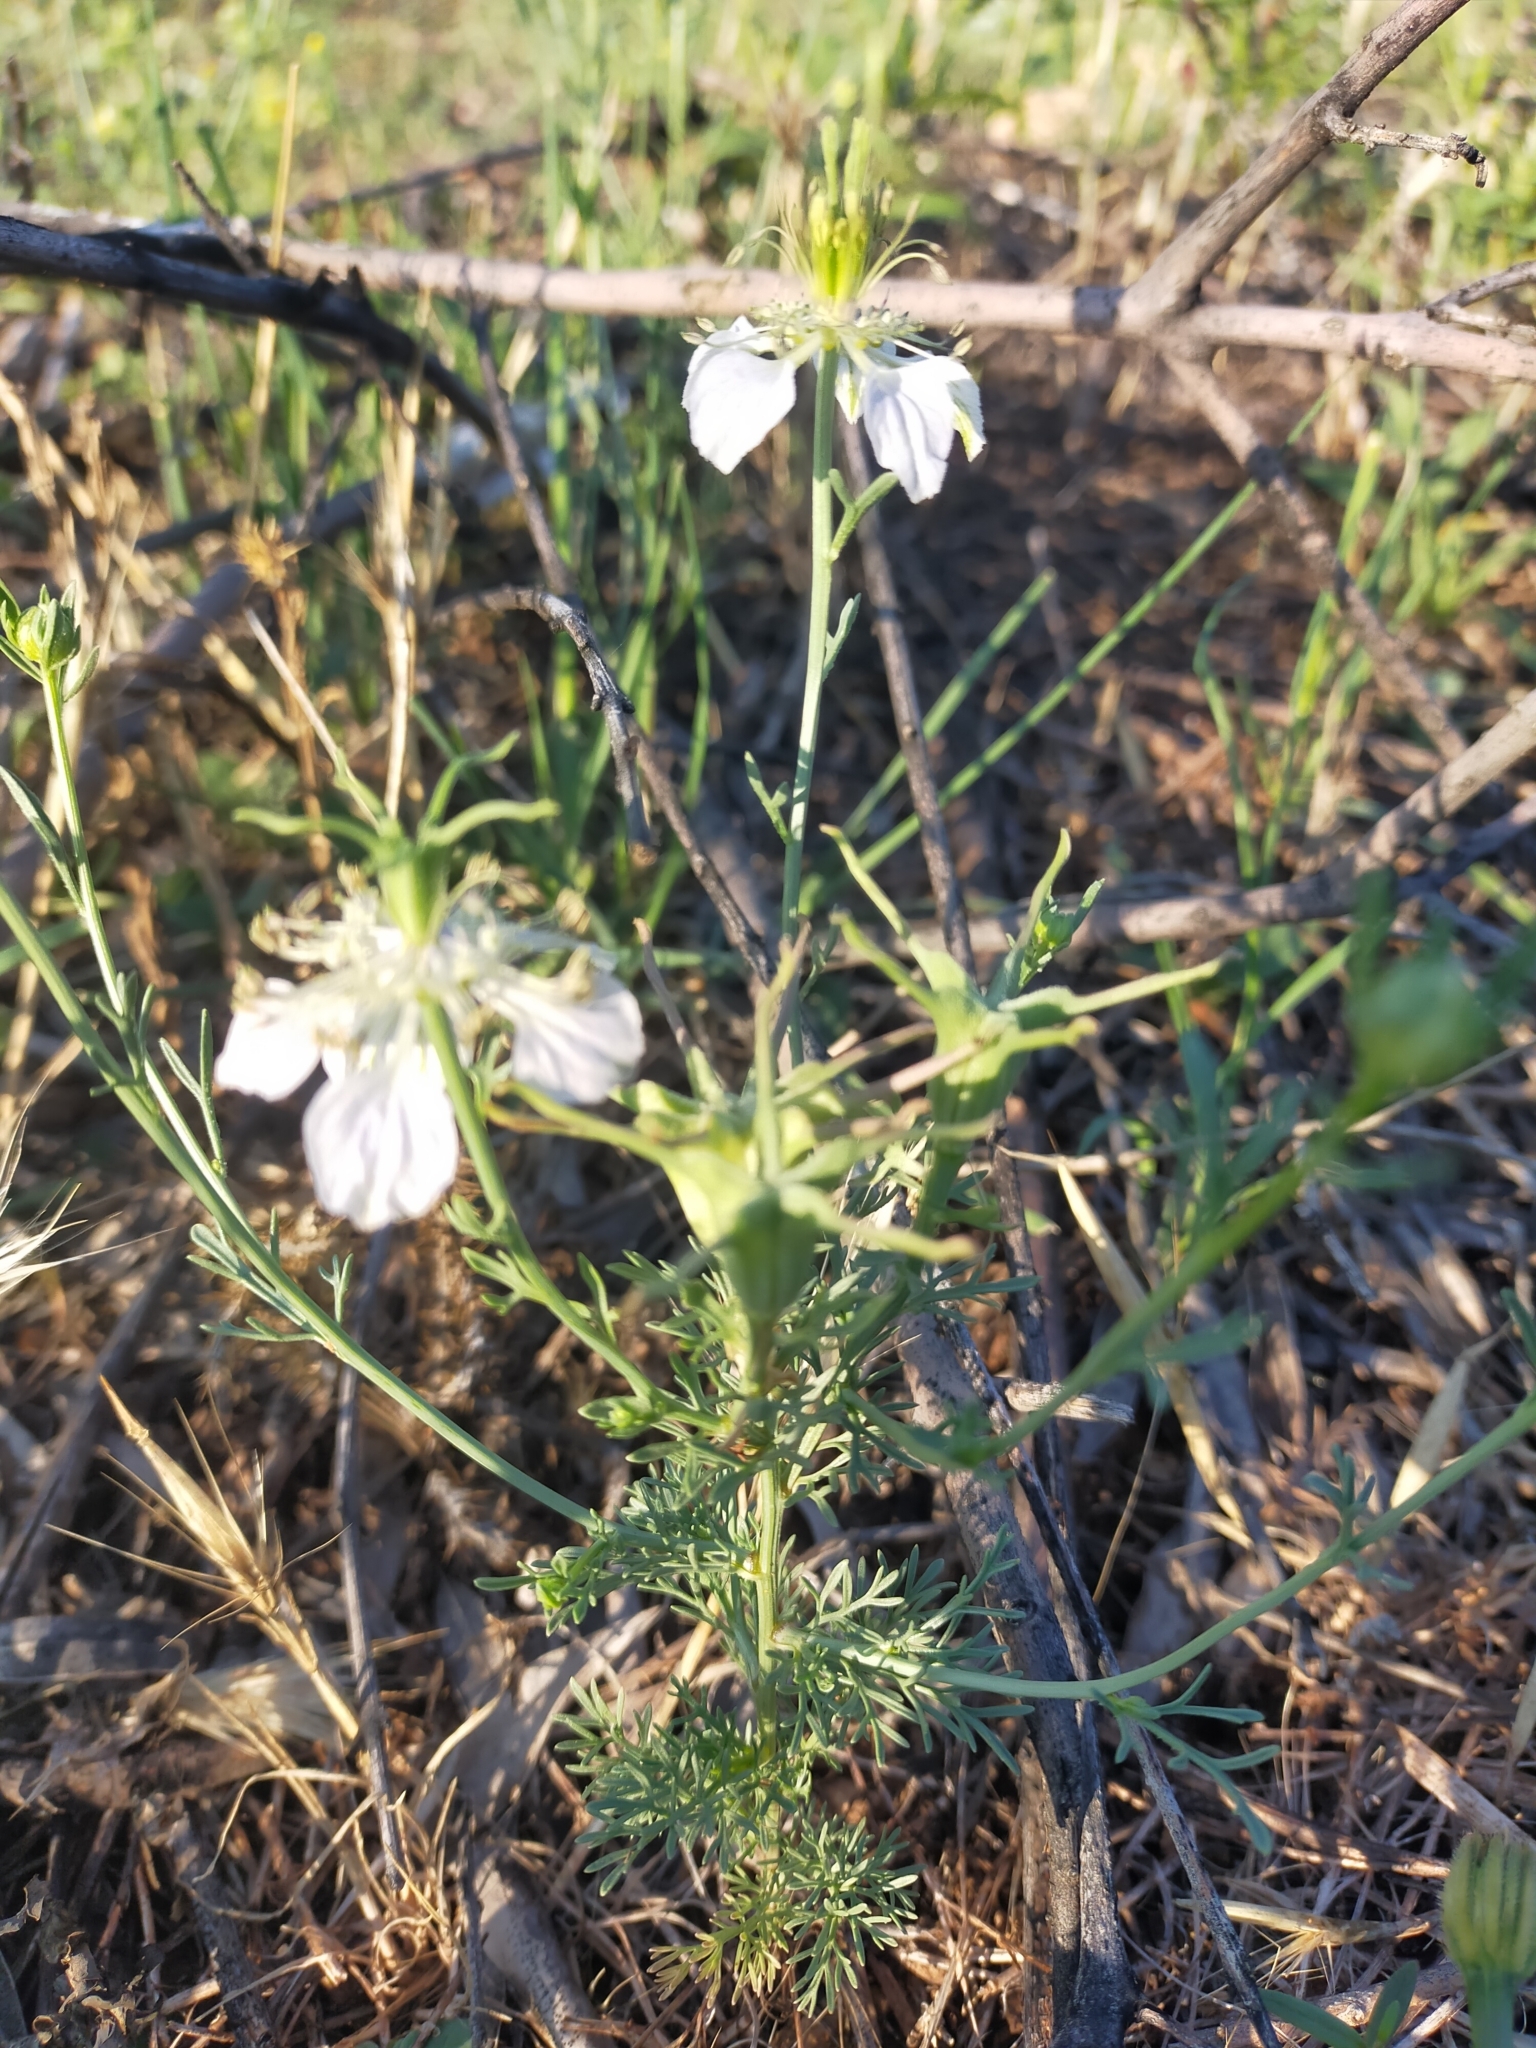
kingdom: Plantae
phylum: Tracheophyta
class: Magnoliopsida
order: Ranunculales
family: Ranunculaceae
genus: Nigella
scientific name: Nigella gallica
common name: Pale fennel-flower
